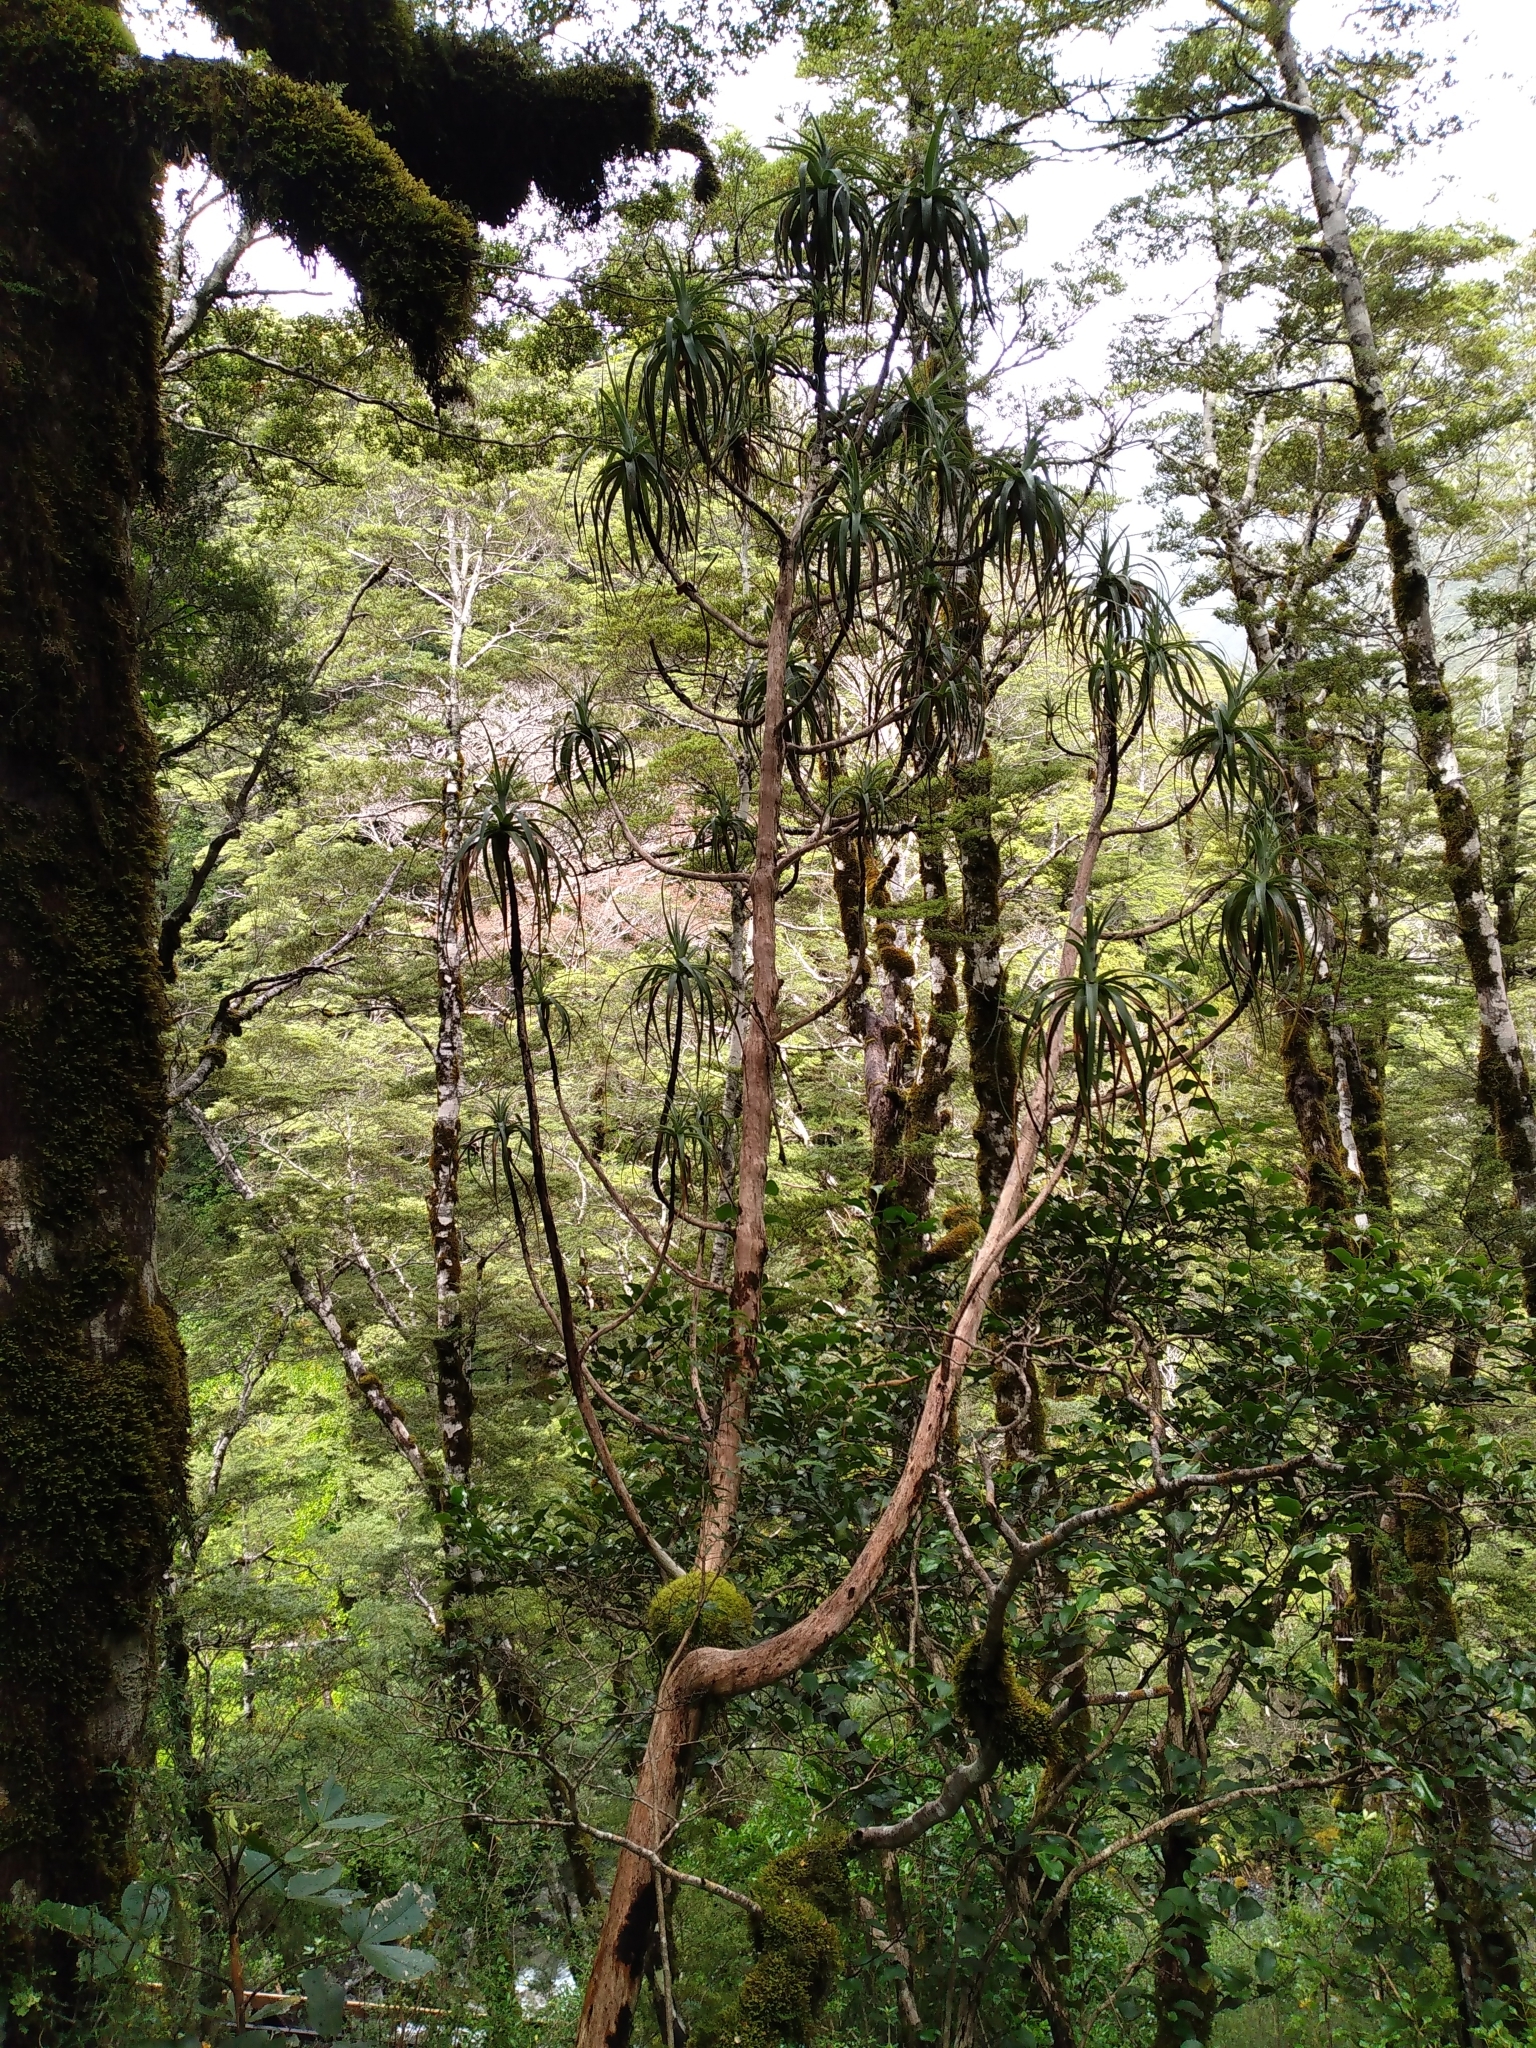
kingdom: Plantae
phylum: Tracheophyta
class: Magnoliopsida
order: Ericales
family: Ericaceae
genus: Dracophyllum
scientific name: Dracophyllum traversii
